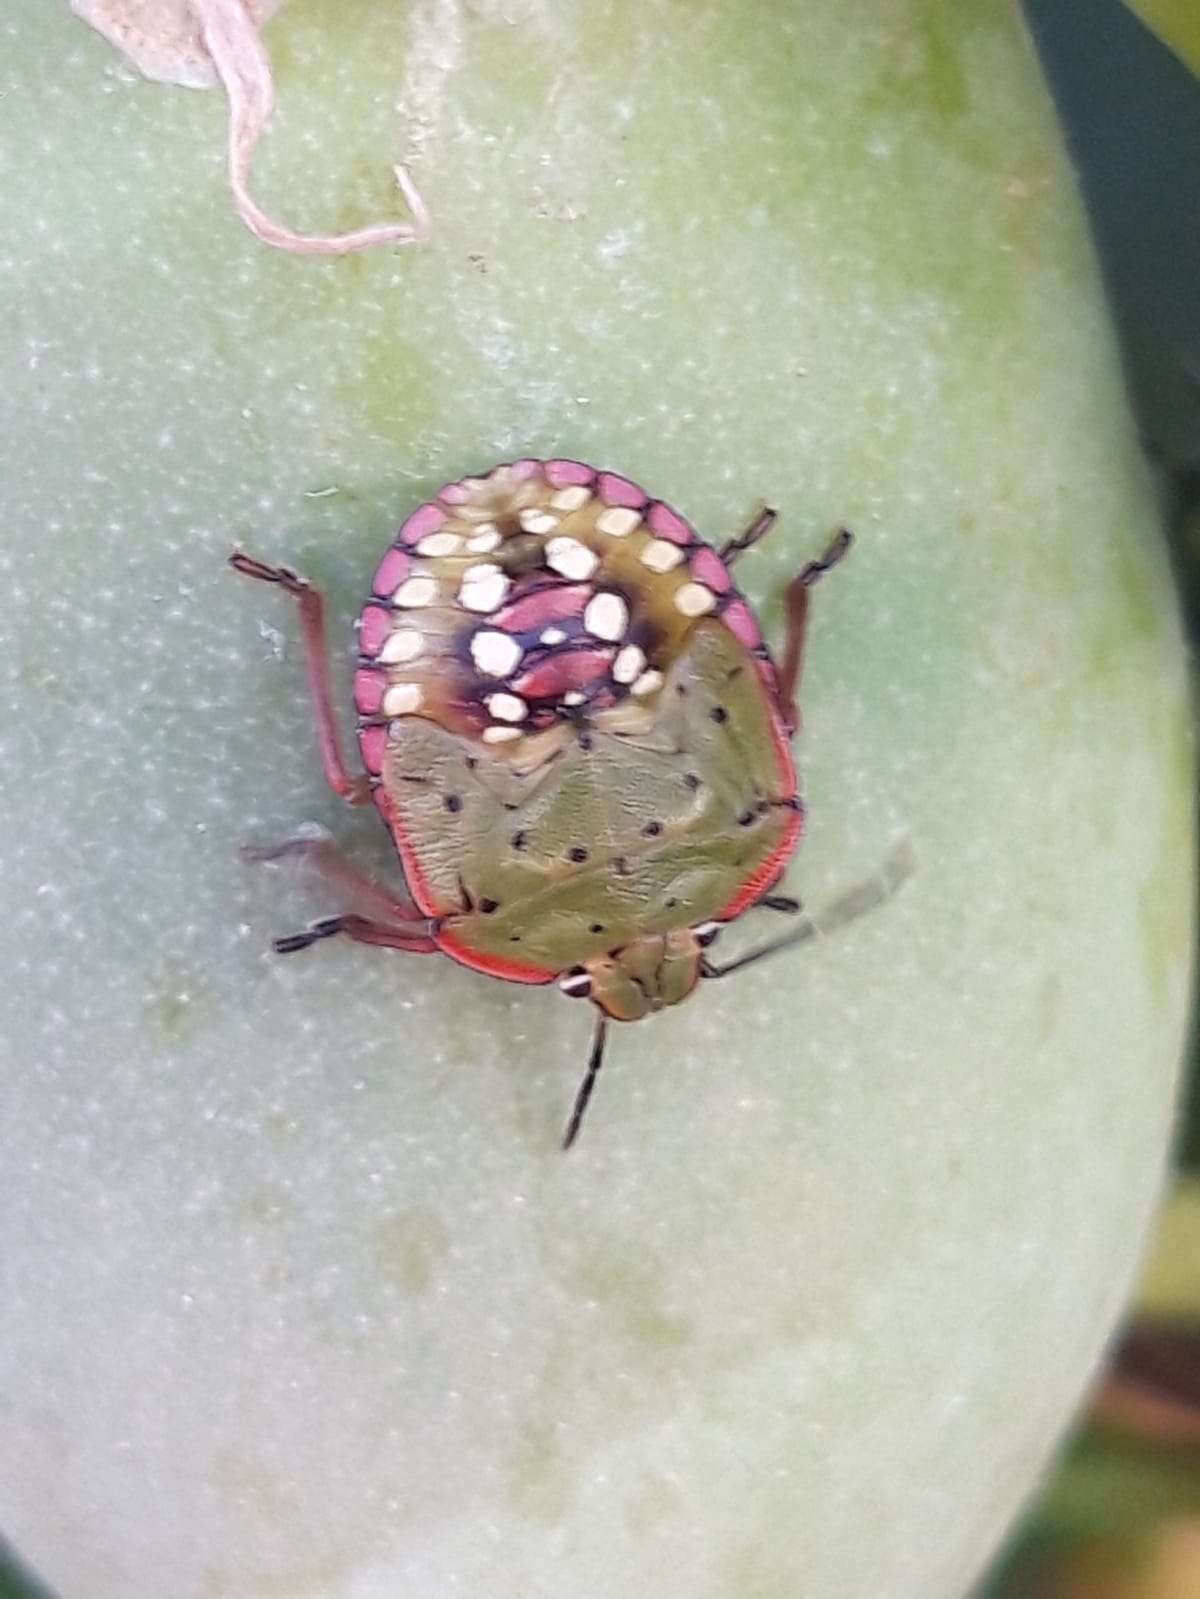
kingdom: Animalia
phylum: Arthropoda
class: Insecta
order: Hemiptera
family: Pentatomidae
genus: Nezara
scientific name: Nezara viridula
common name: Southern green stink bug
